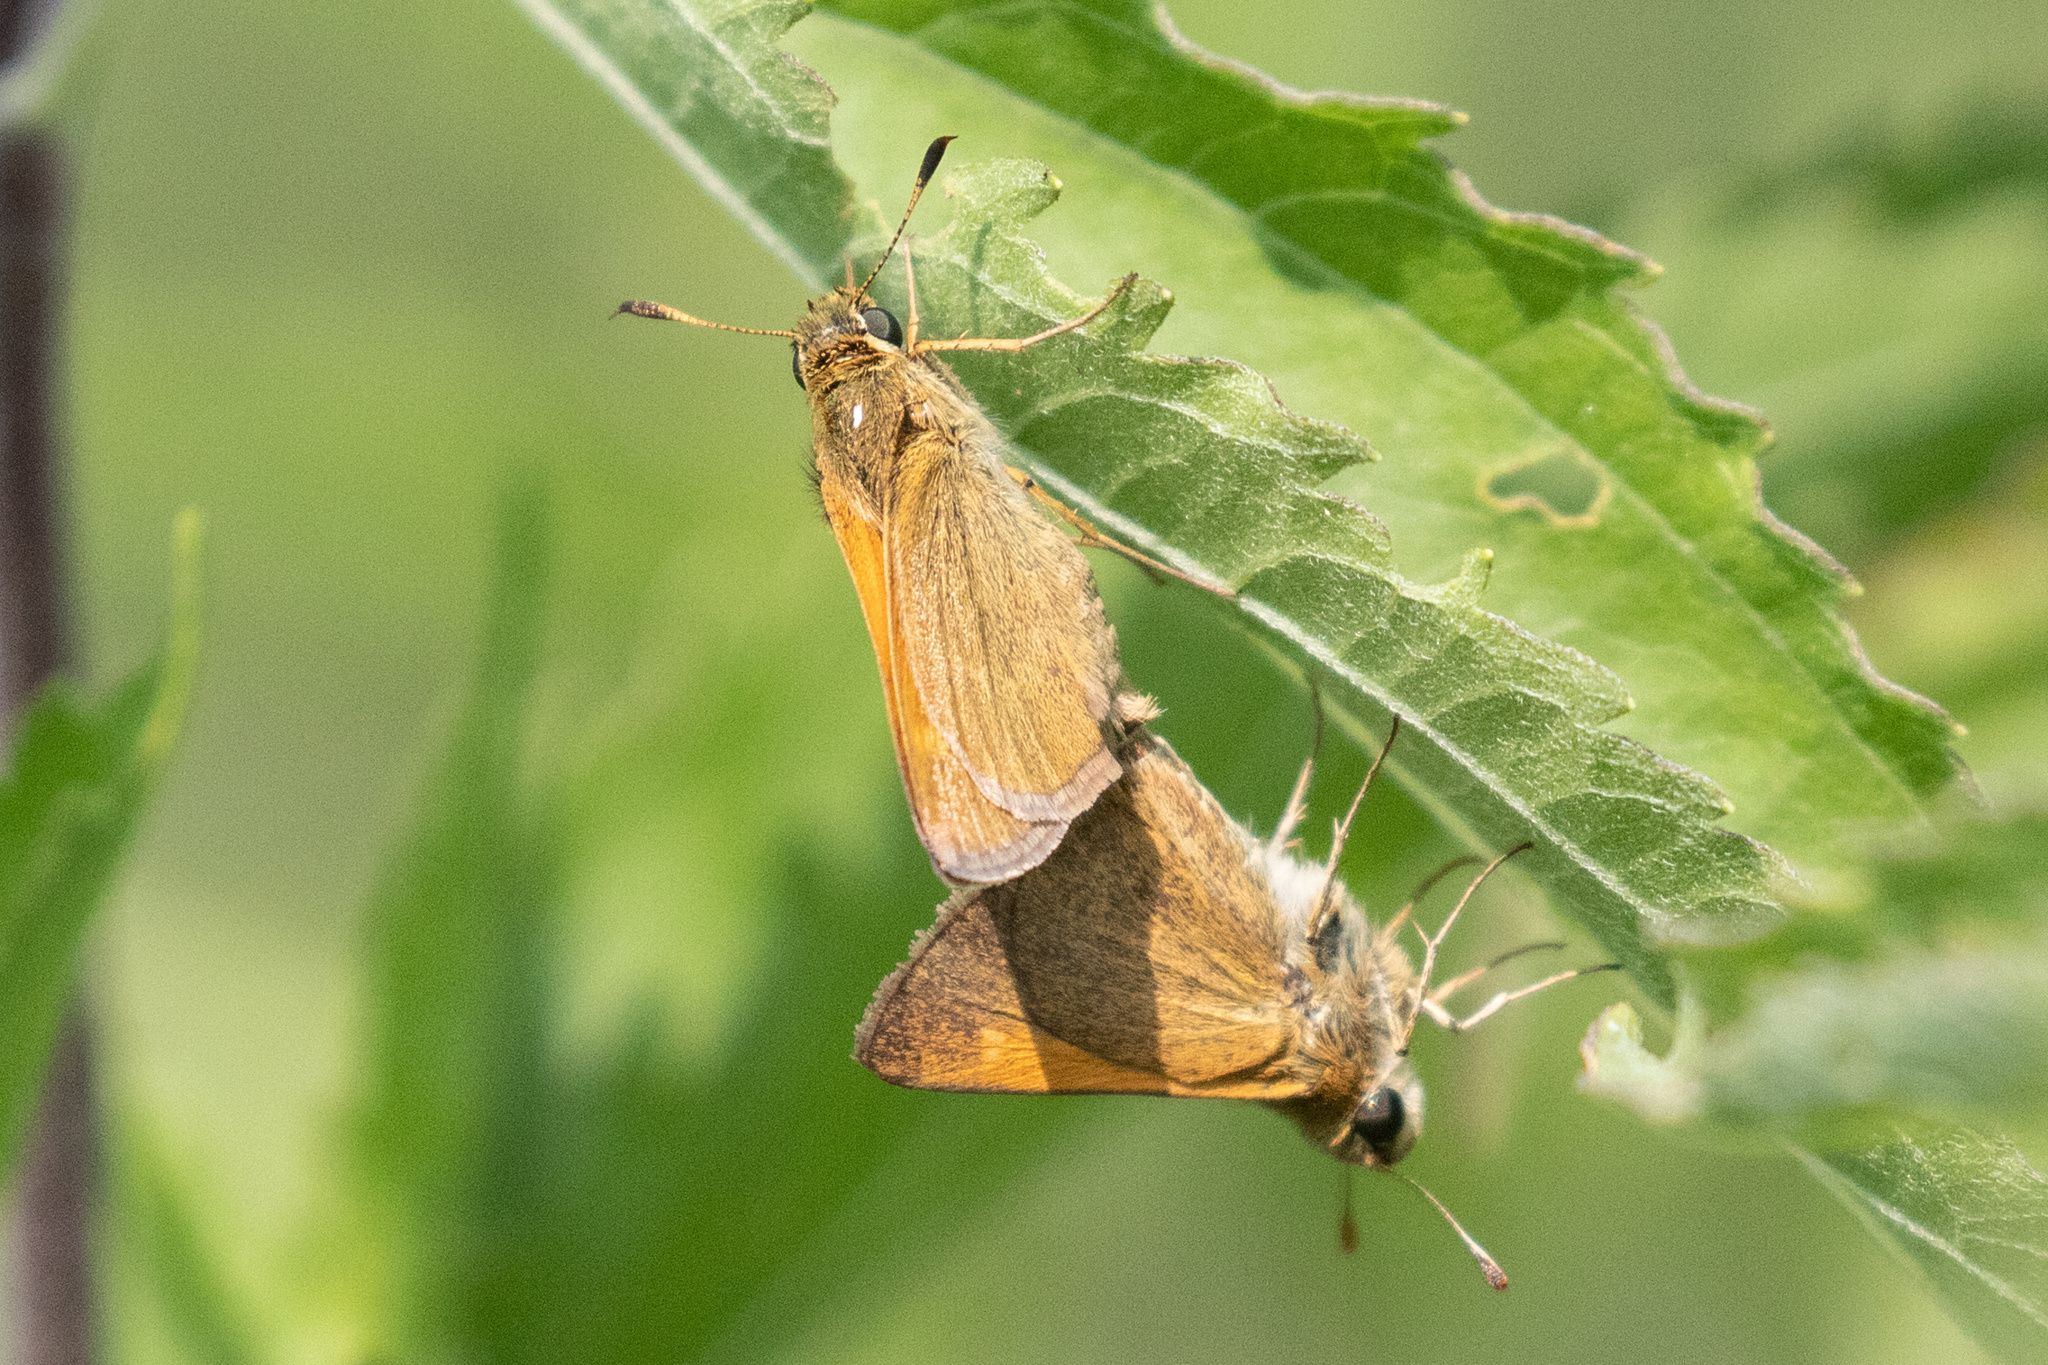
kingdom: Animalia
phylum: Arthropoda
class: Insecta
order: Lepidoptera
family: Hesperiidae
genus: Polites
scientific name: Polites themistocles
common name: Tawny-edged skipper
